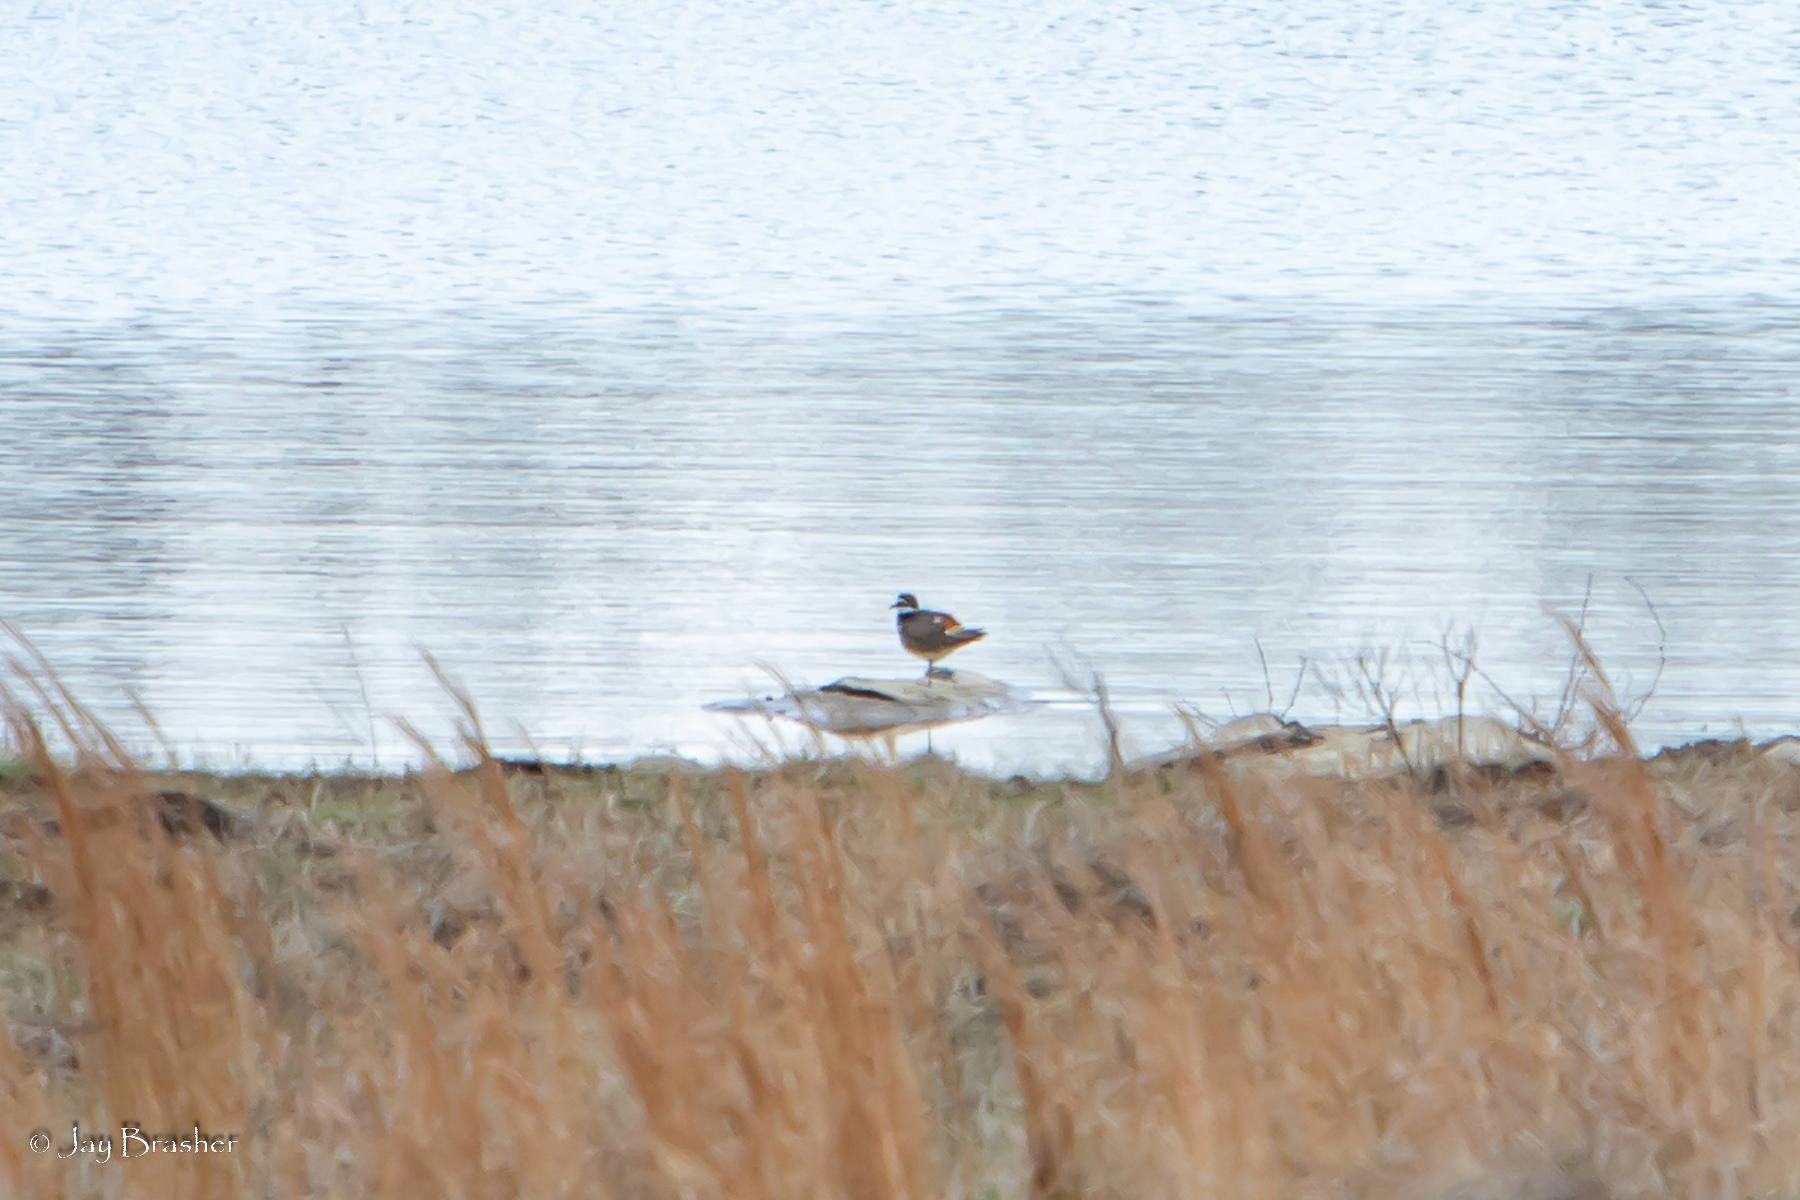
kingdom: Animalia
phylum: Chordata
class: Aves
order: Charadriiformes
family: Charadriidae
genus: Charadrius
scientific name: Charadrius vociferus
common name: Killdeer
